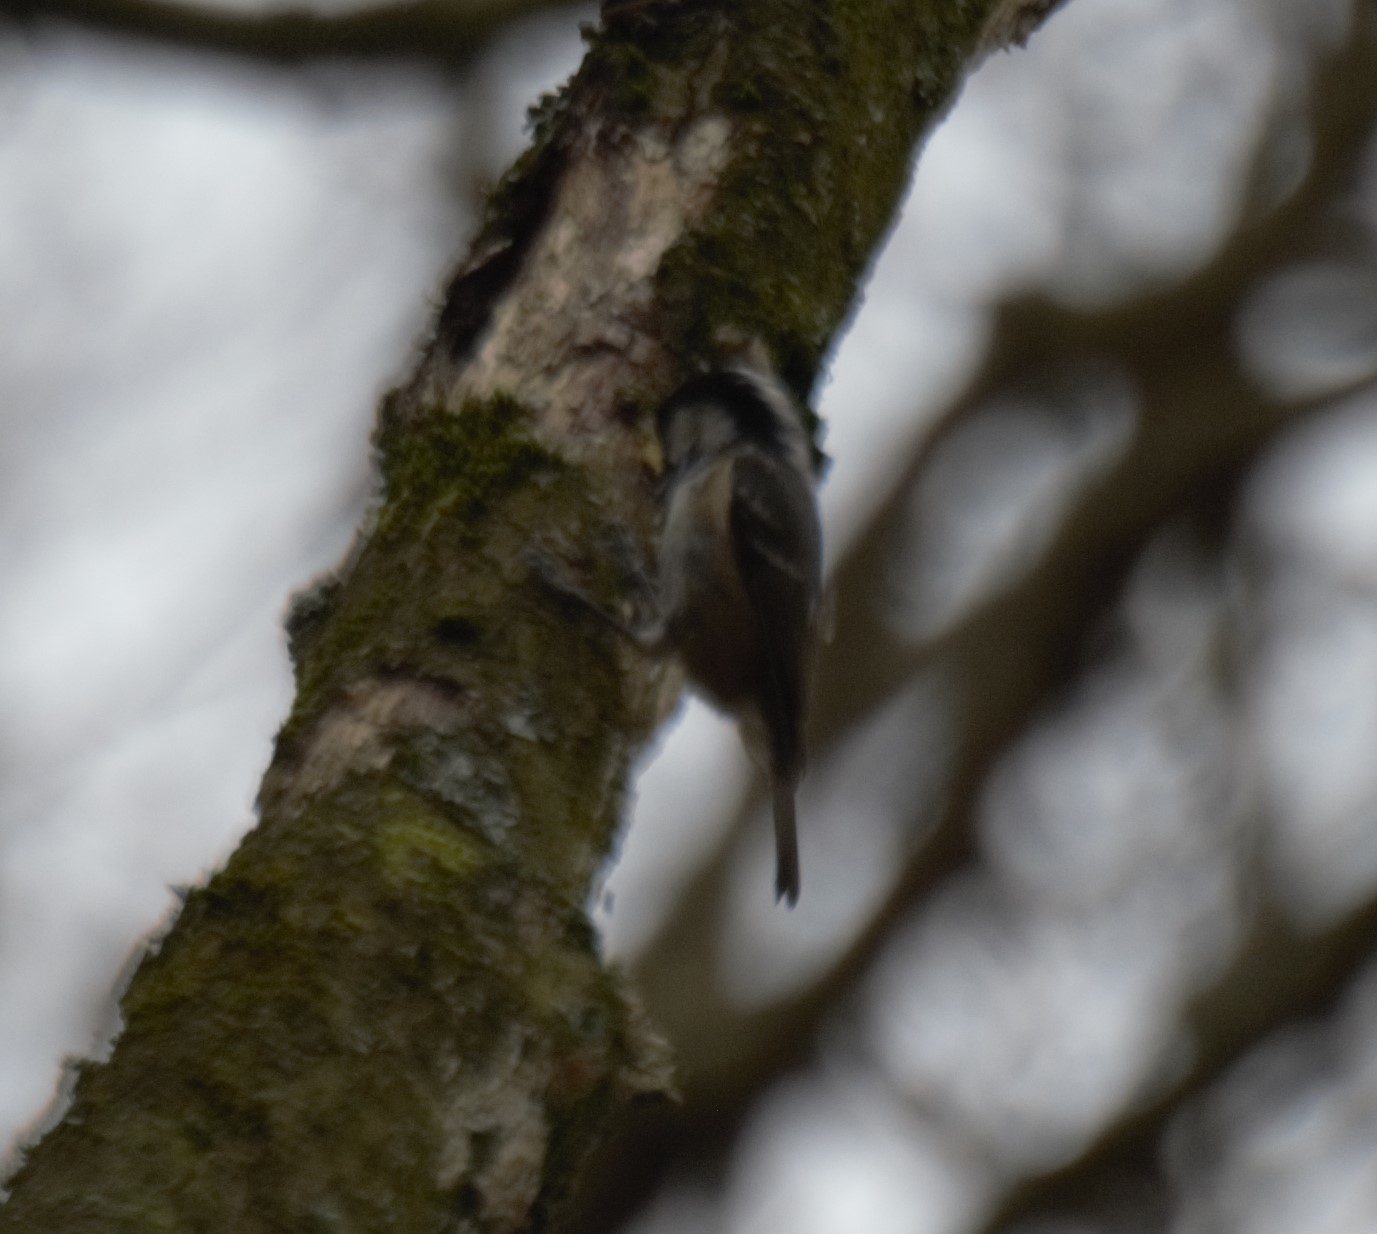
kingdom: Animalia
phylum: Chordata
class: Aves
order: Passeriformes
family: Paridae
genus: Periparus
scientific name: Periparus ater
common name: Coal tit
